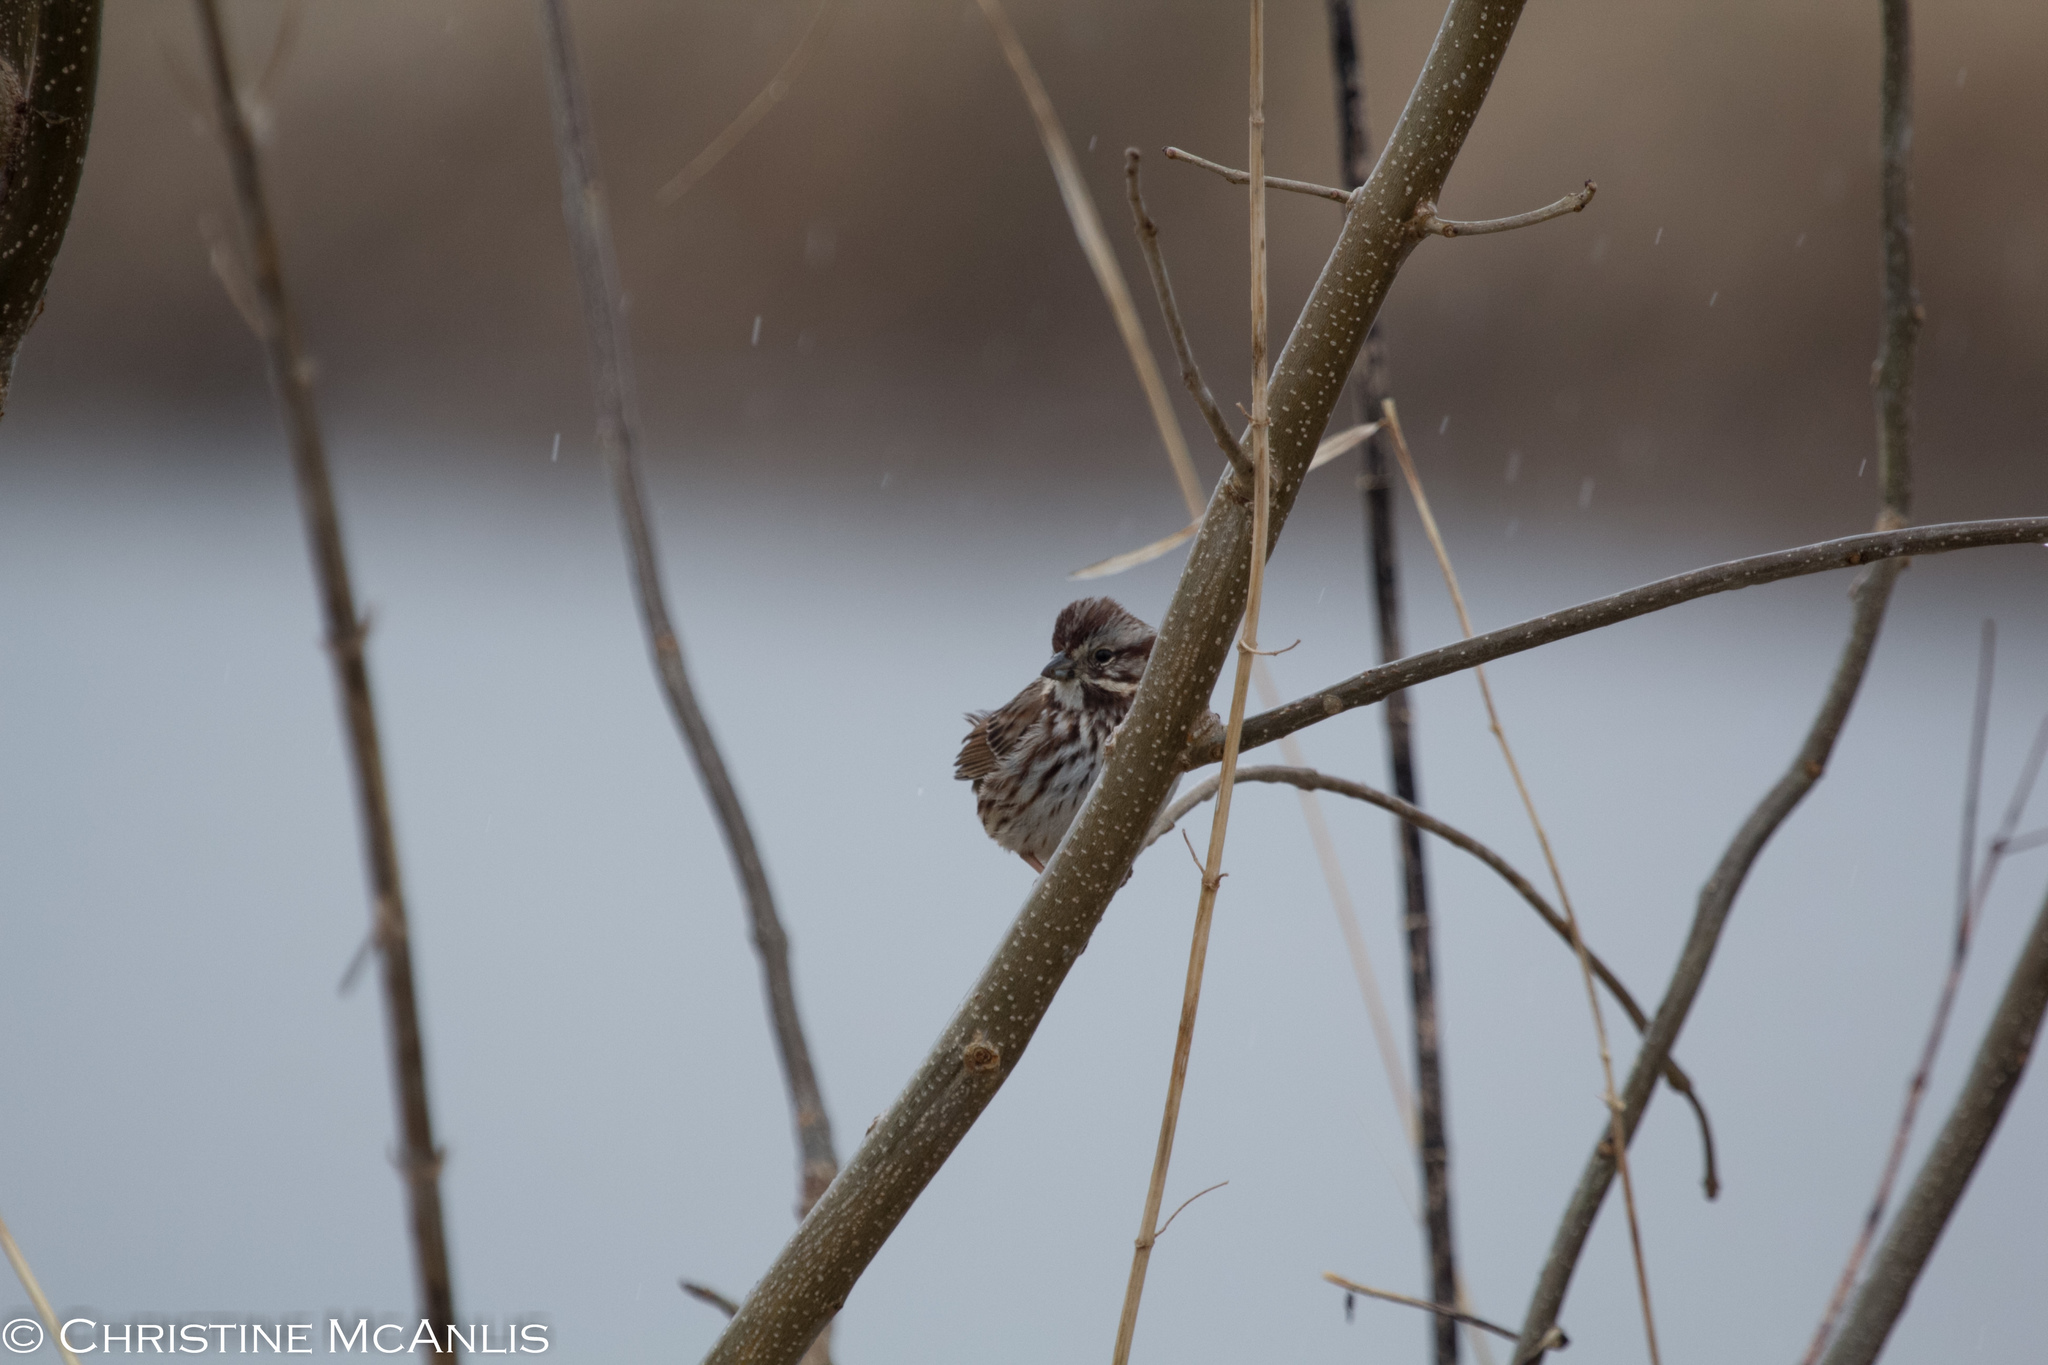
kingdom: Animalia
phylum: Chordata
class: Aves
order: Passeriformes
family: Passerellidae
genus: Melospiza
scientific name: Melospiza melodia
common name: Song sparrow
